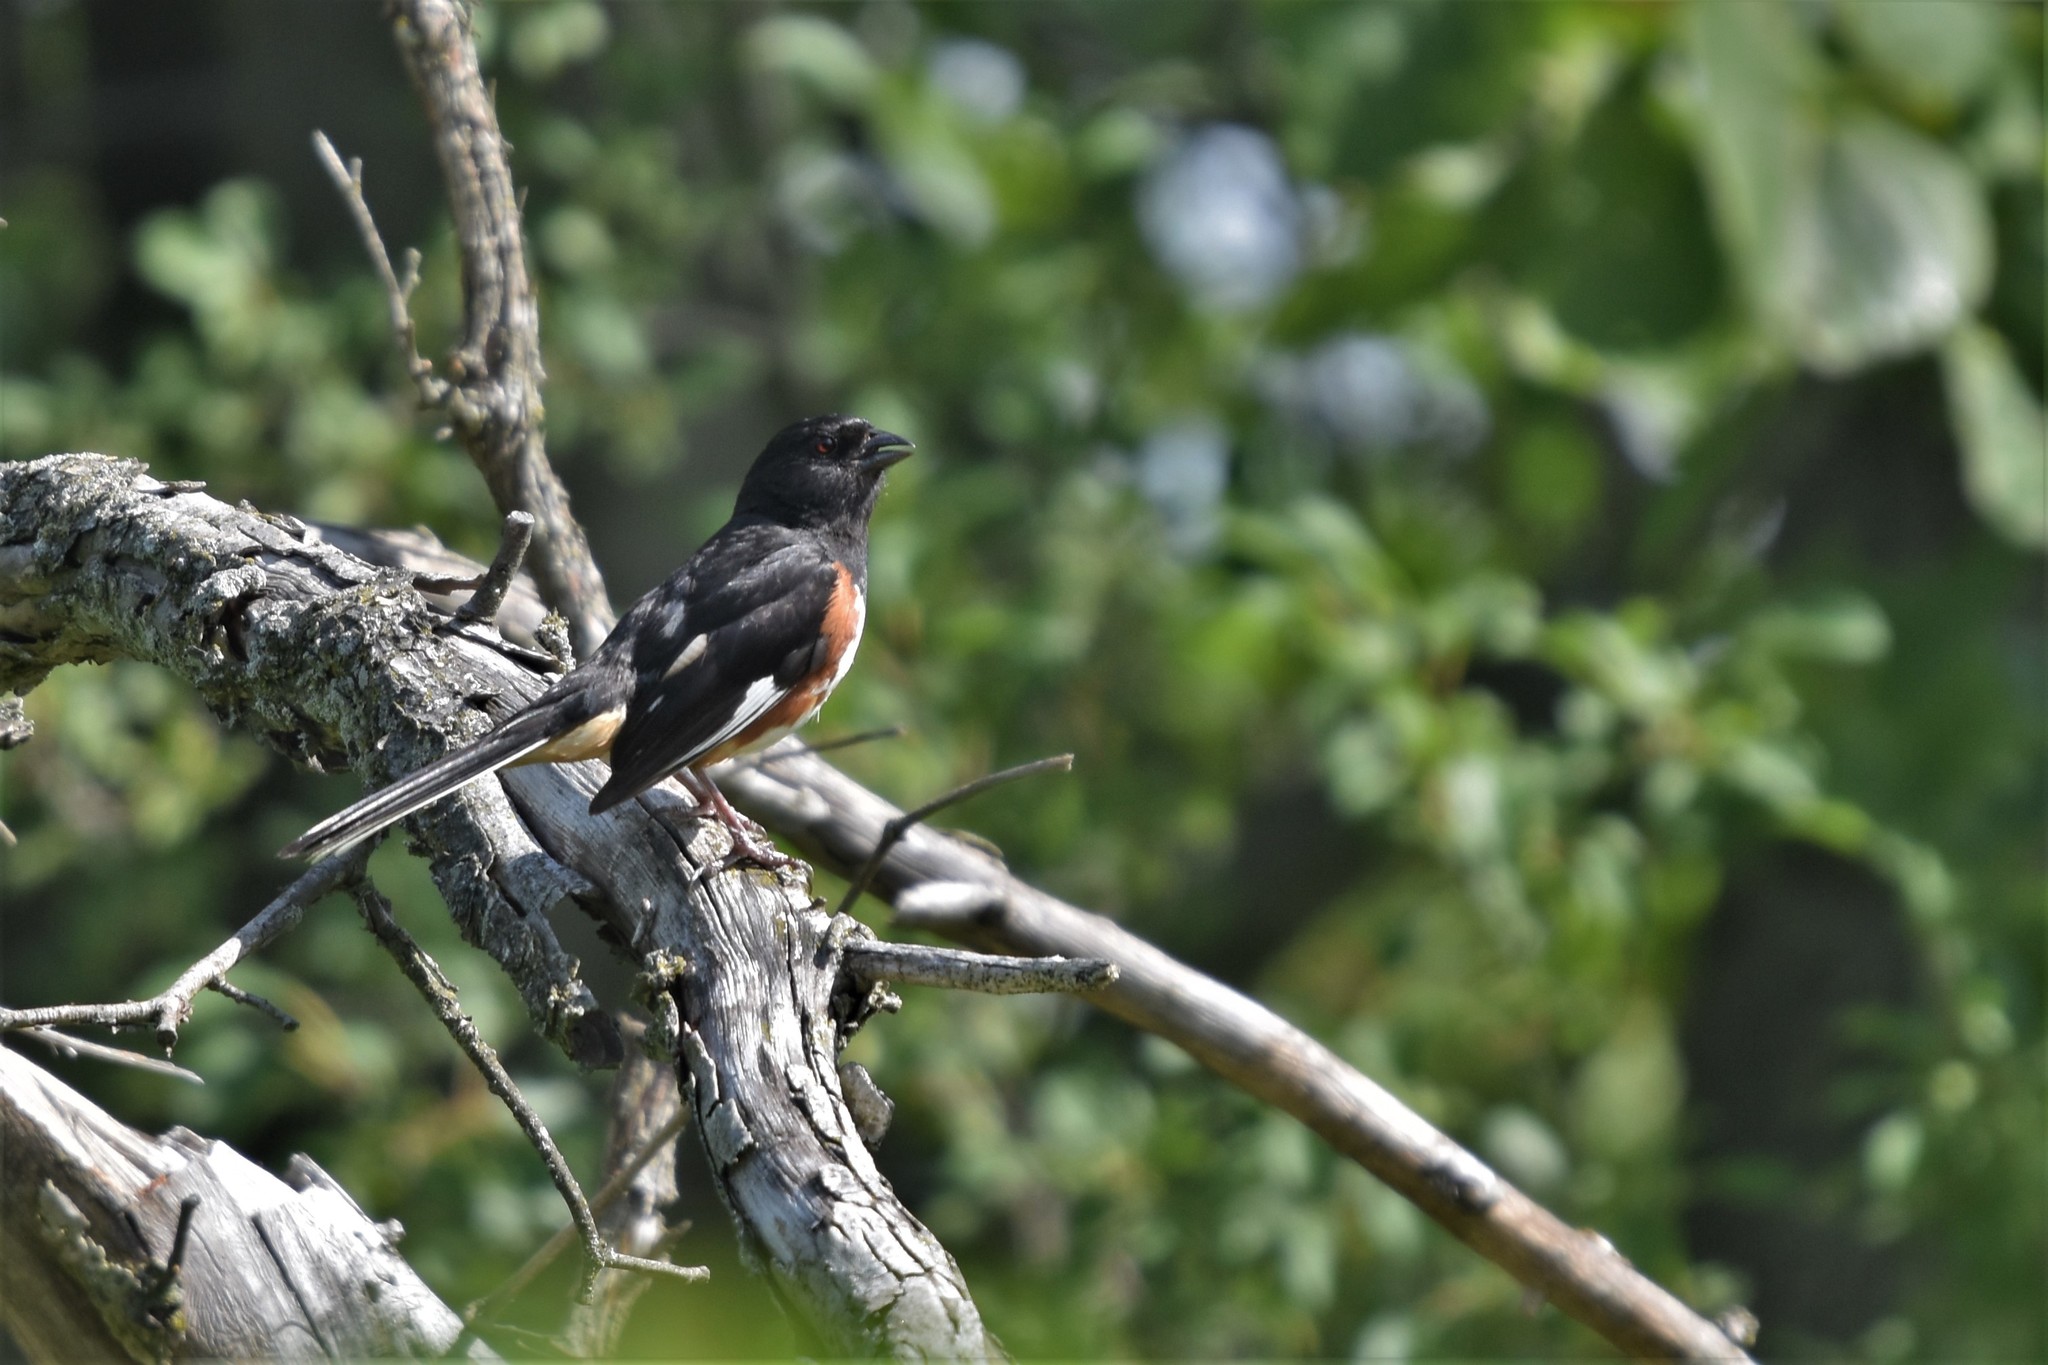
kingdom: Animalia
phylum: Chordata
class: Aves
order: Passeriformes
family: Passerellidae
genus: Pipilo
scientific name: Pipilo erythrophthalmus
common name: Eastern towhee
